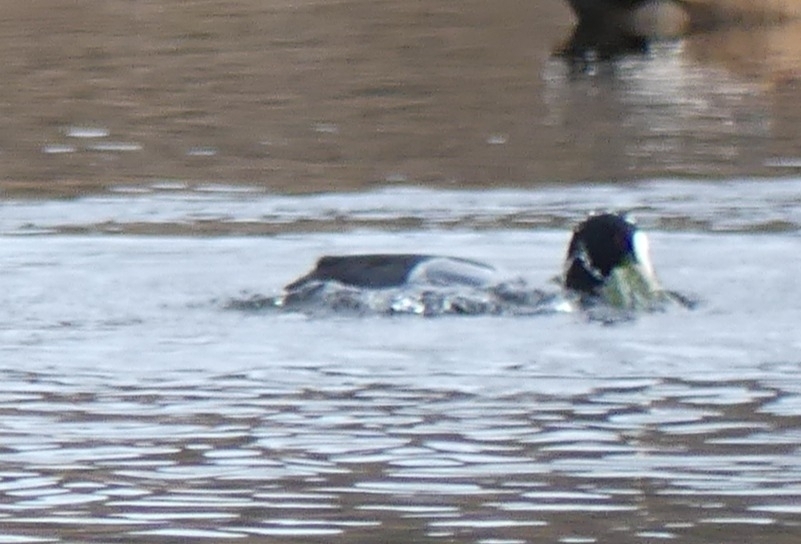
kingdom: Animalia
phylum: Chordata
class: Aves
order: Gruiformes
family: Rallidae
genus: Fulica
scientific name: Fulica atra
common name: Eurasian coot
